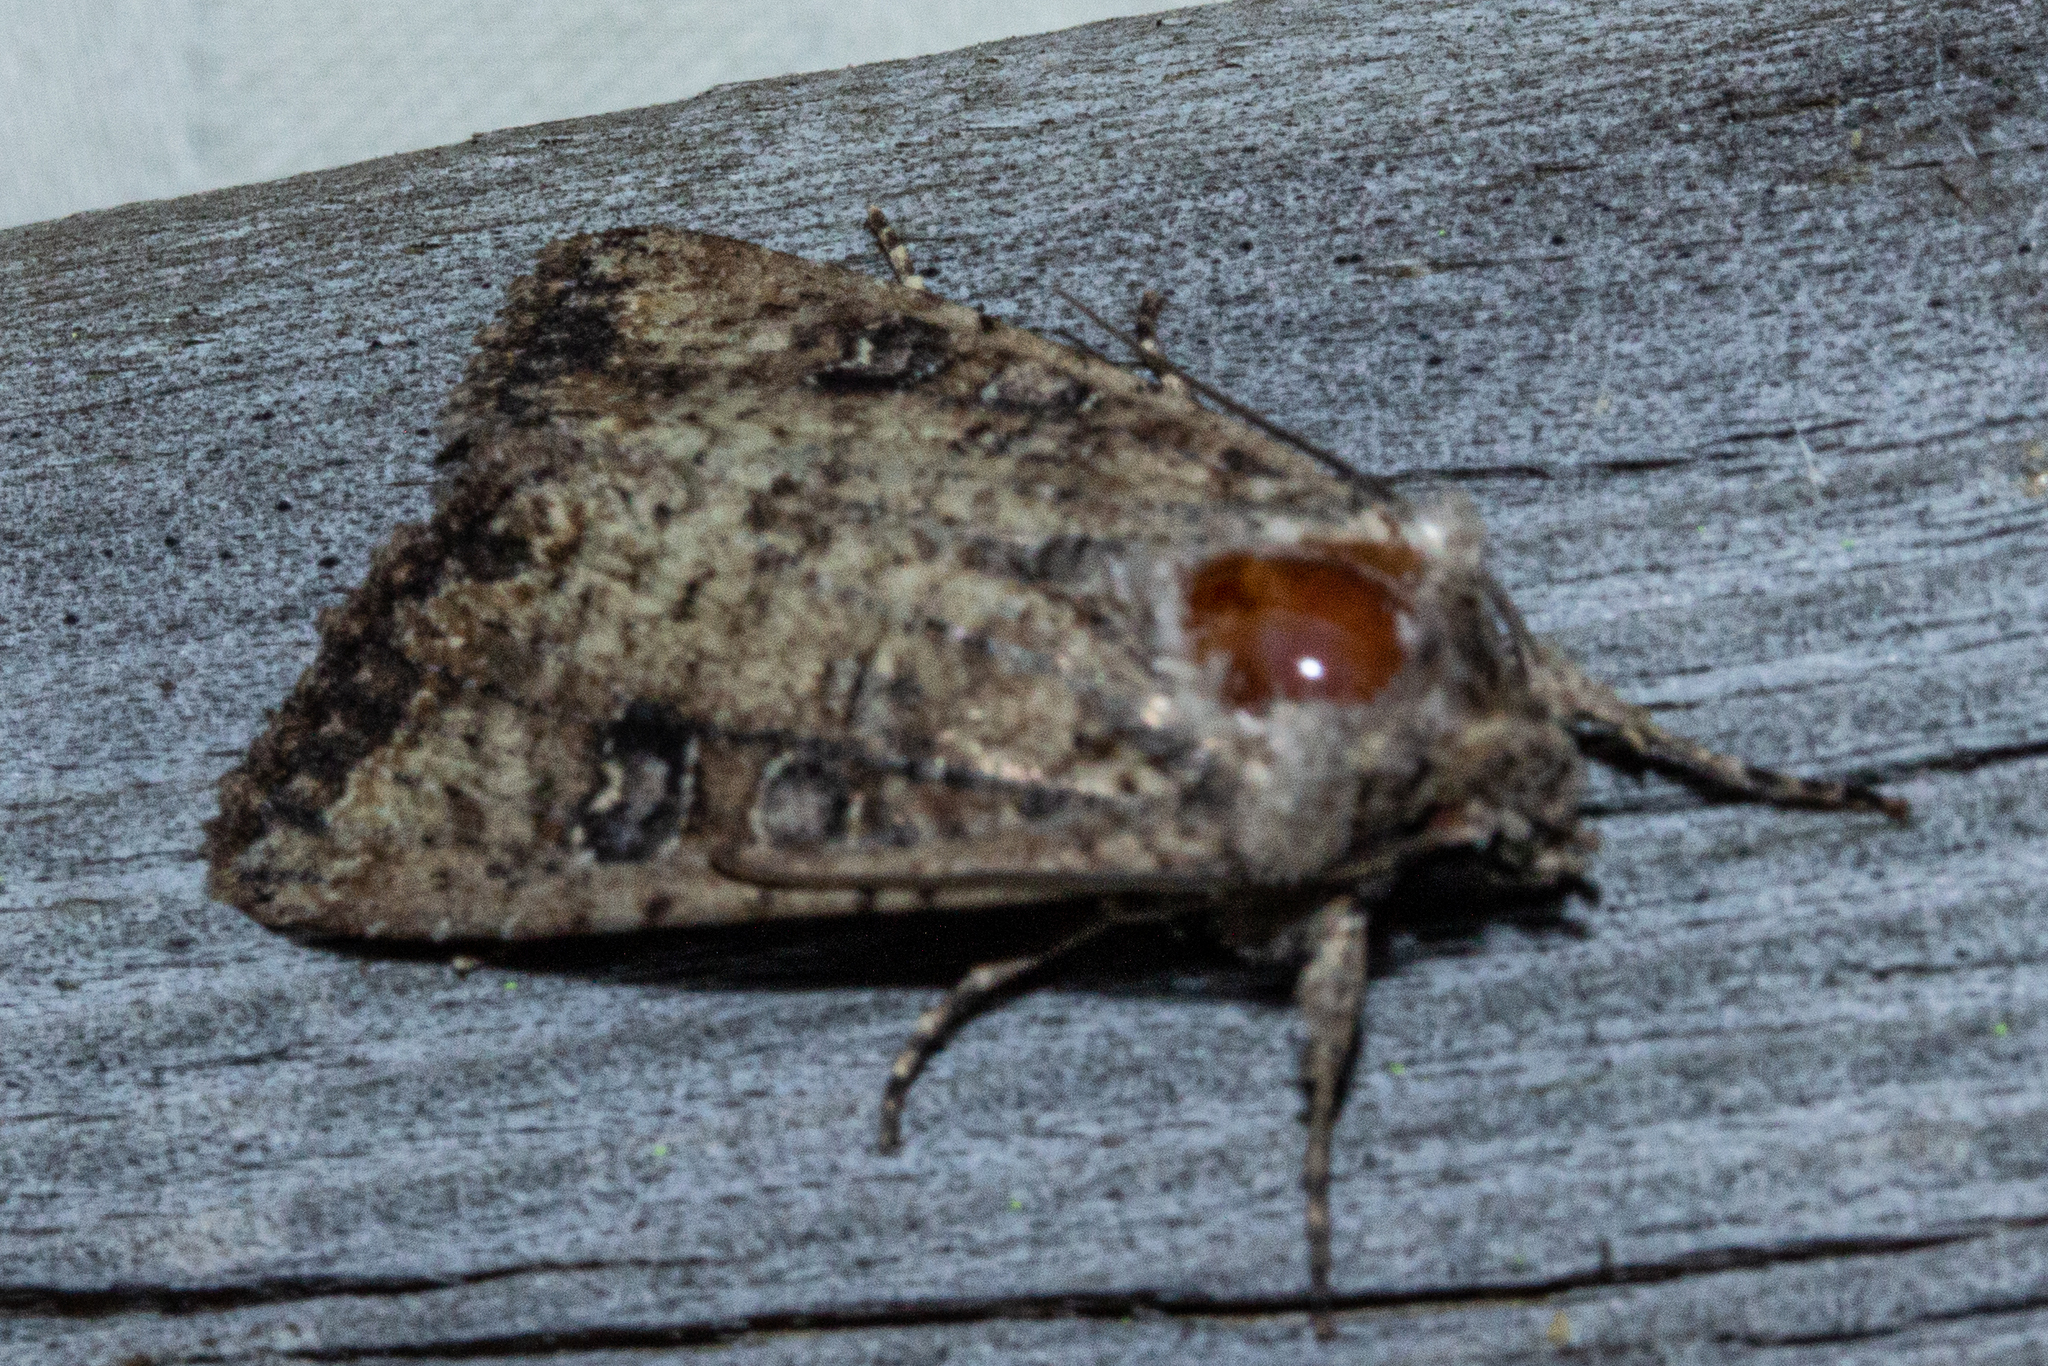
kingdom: Animalia
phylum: Arthropoda
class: Insecta
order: Lepidoptera
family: Noctuidae
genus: Ichneutica
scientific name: Ichneutica morosa
